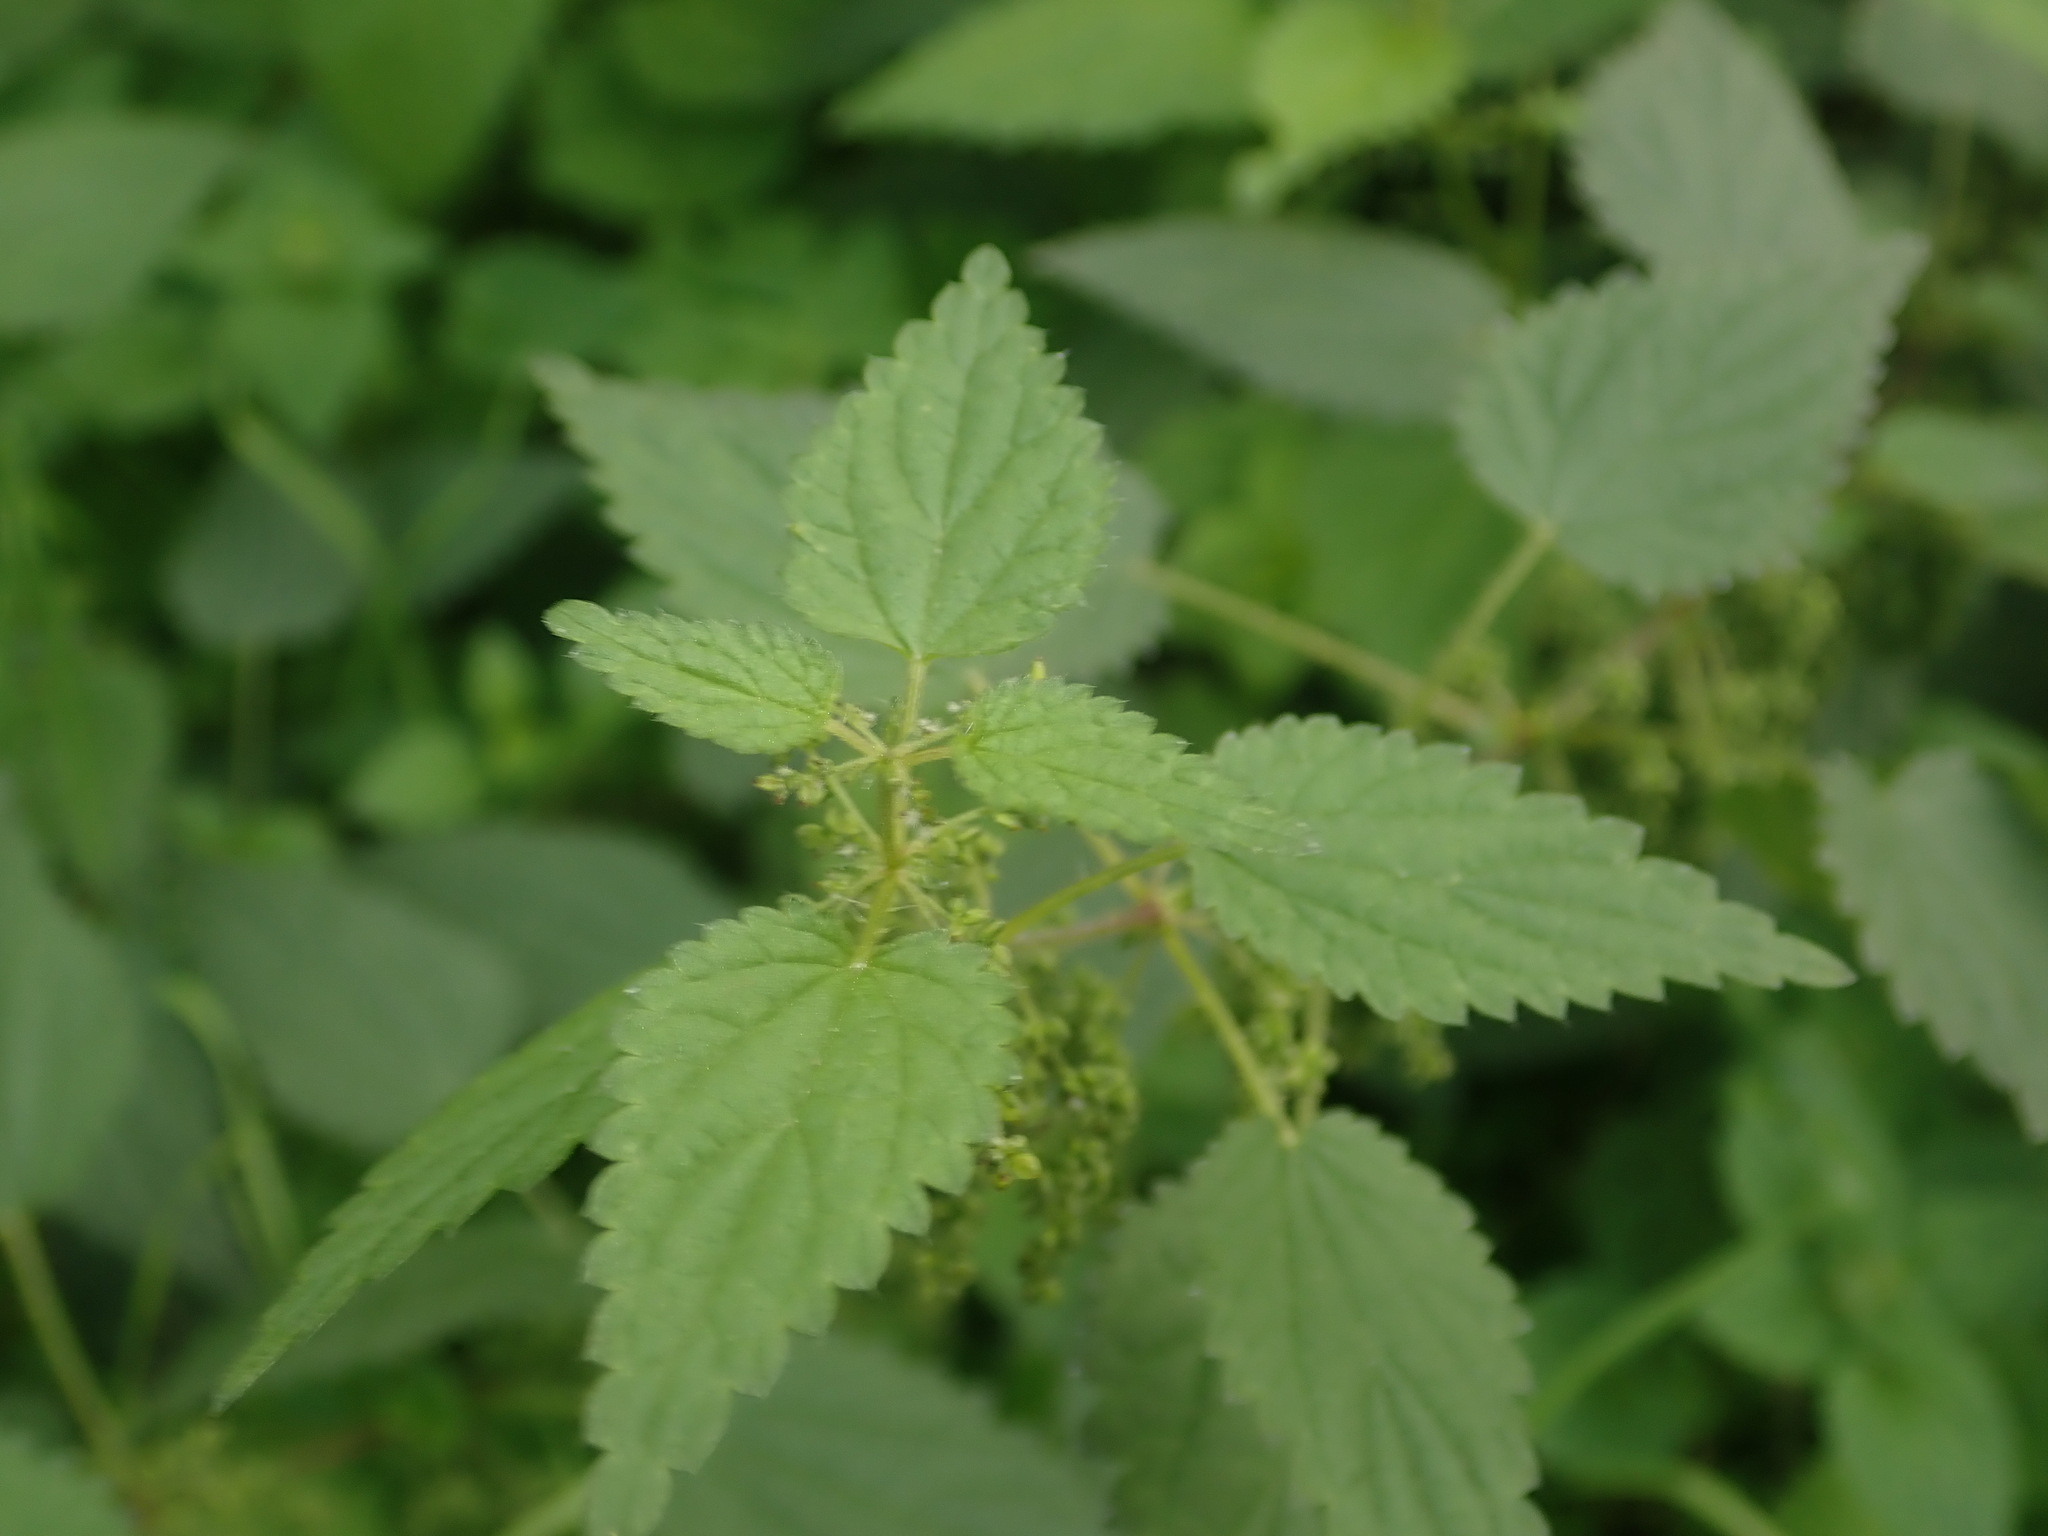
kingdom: Plantae
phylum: Tracheophyta
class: Magnoliopsida
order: Rosales
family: Urticaceae
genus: Urtica
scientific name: Urtica dioica
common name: Common nettle
